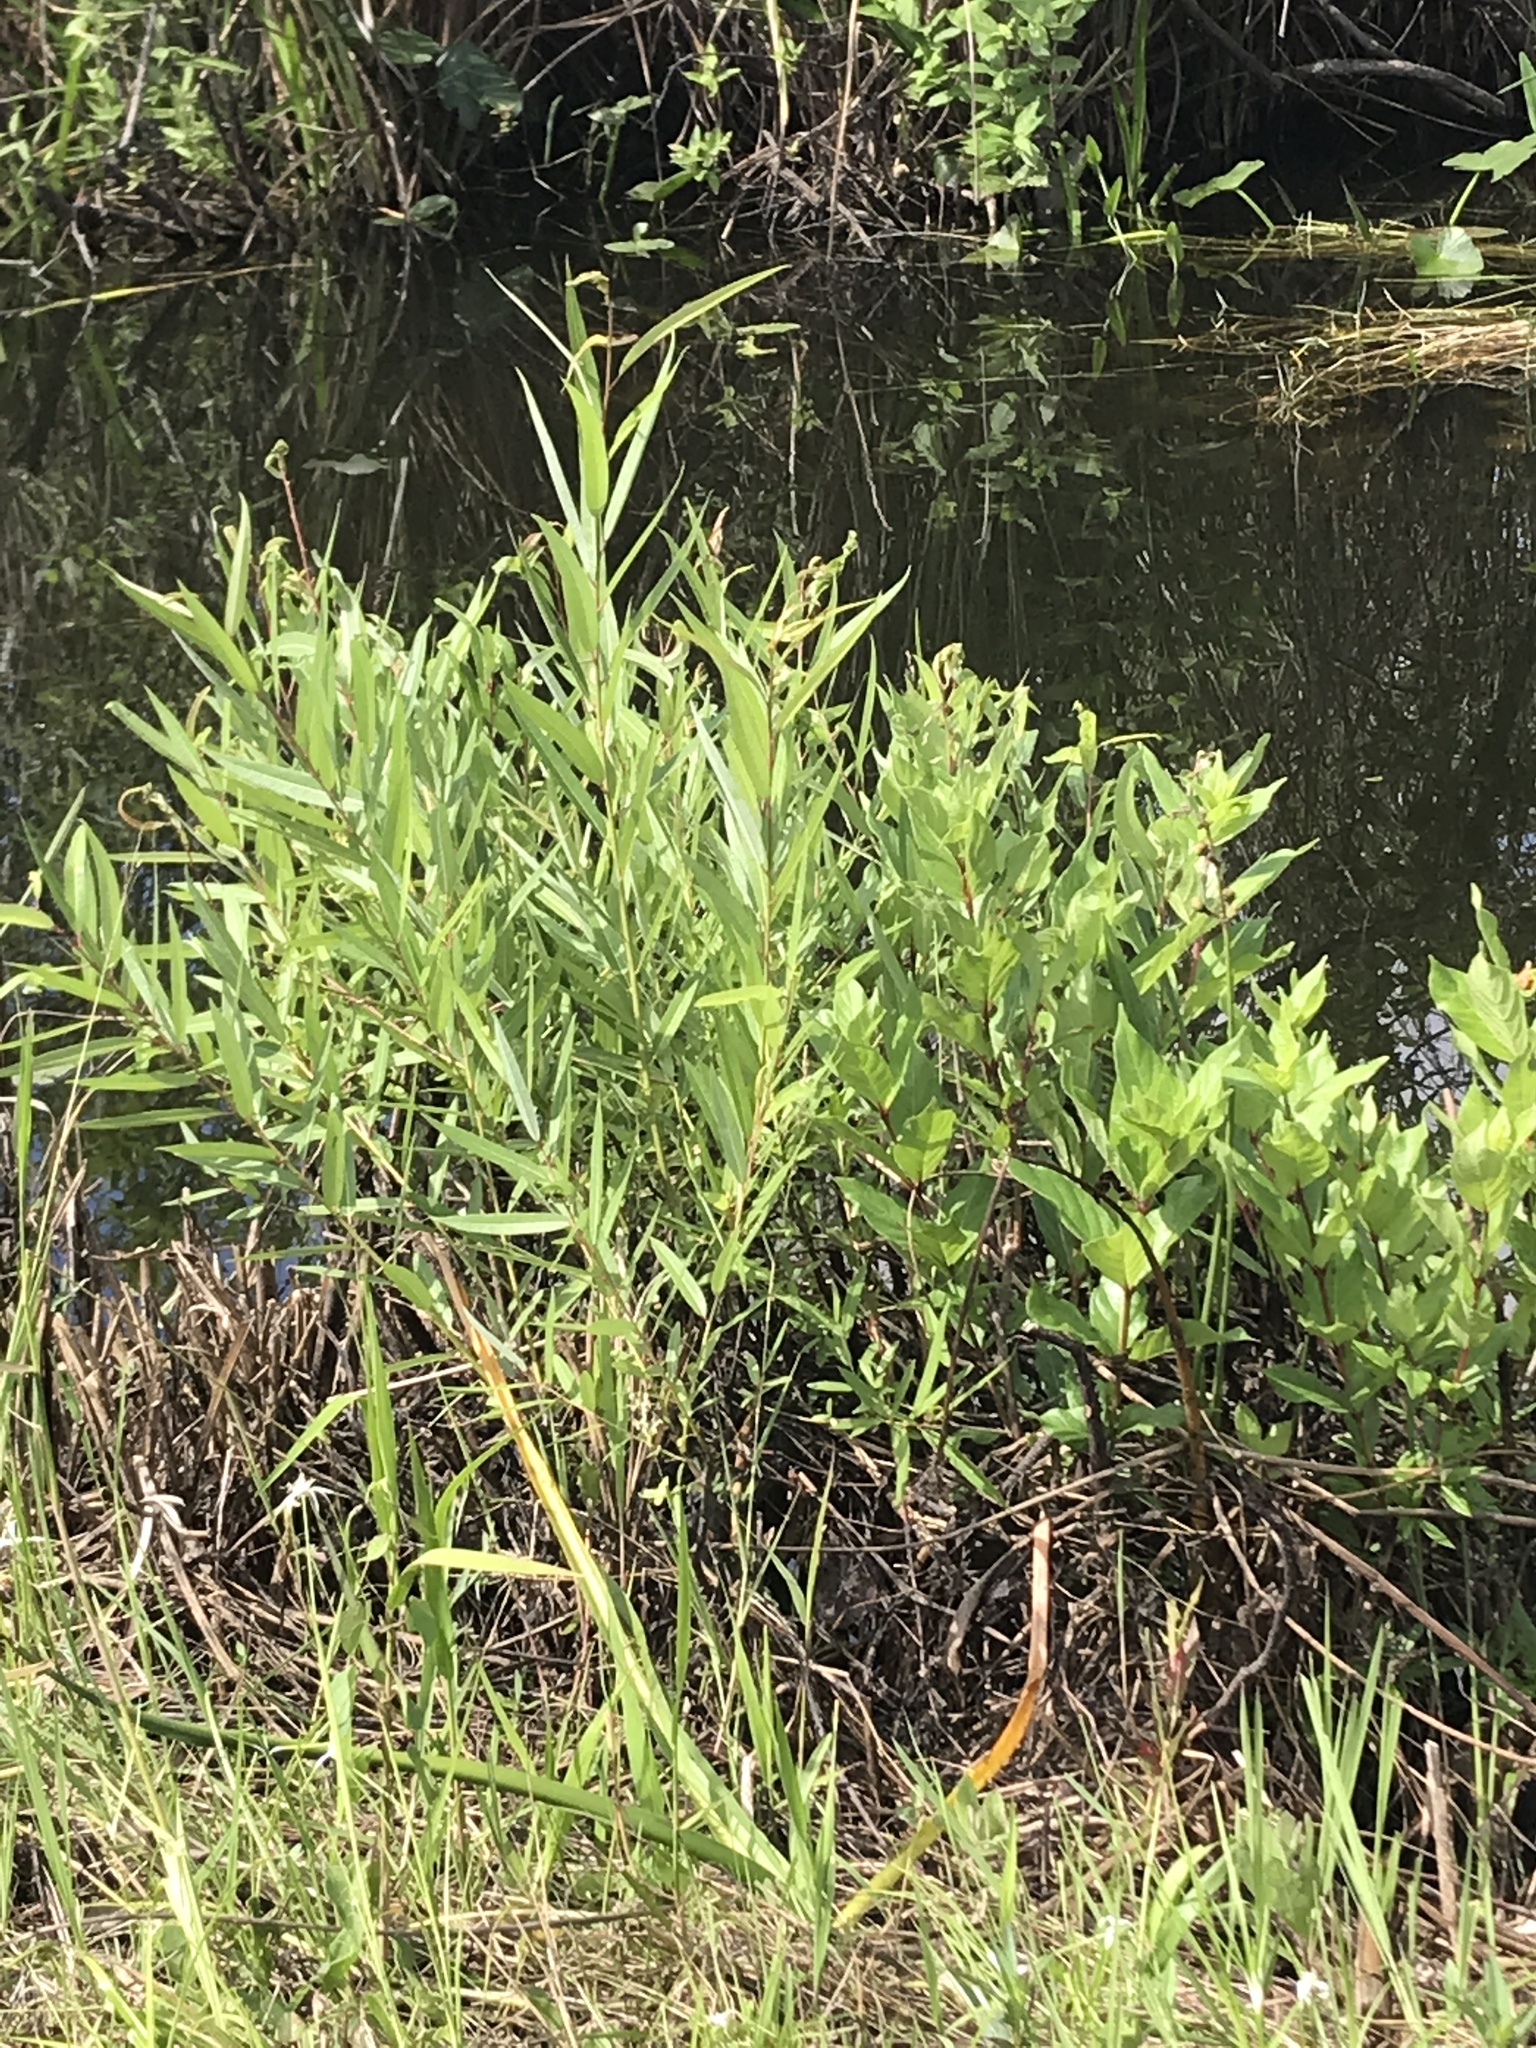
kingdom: Plantae
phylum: Tracheophyta
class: Magnoliopsida
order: Gentianales
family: Rubiaceae
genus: Cephalanthus
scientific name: Cephalanthus occidentalis
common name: Button-willow
